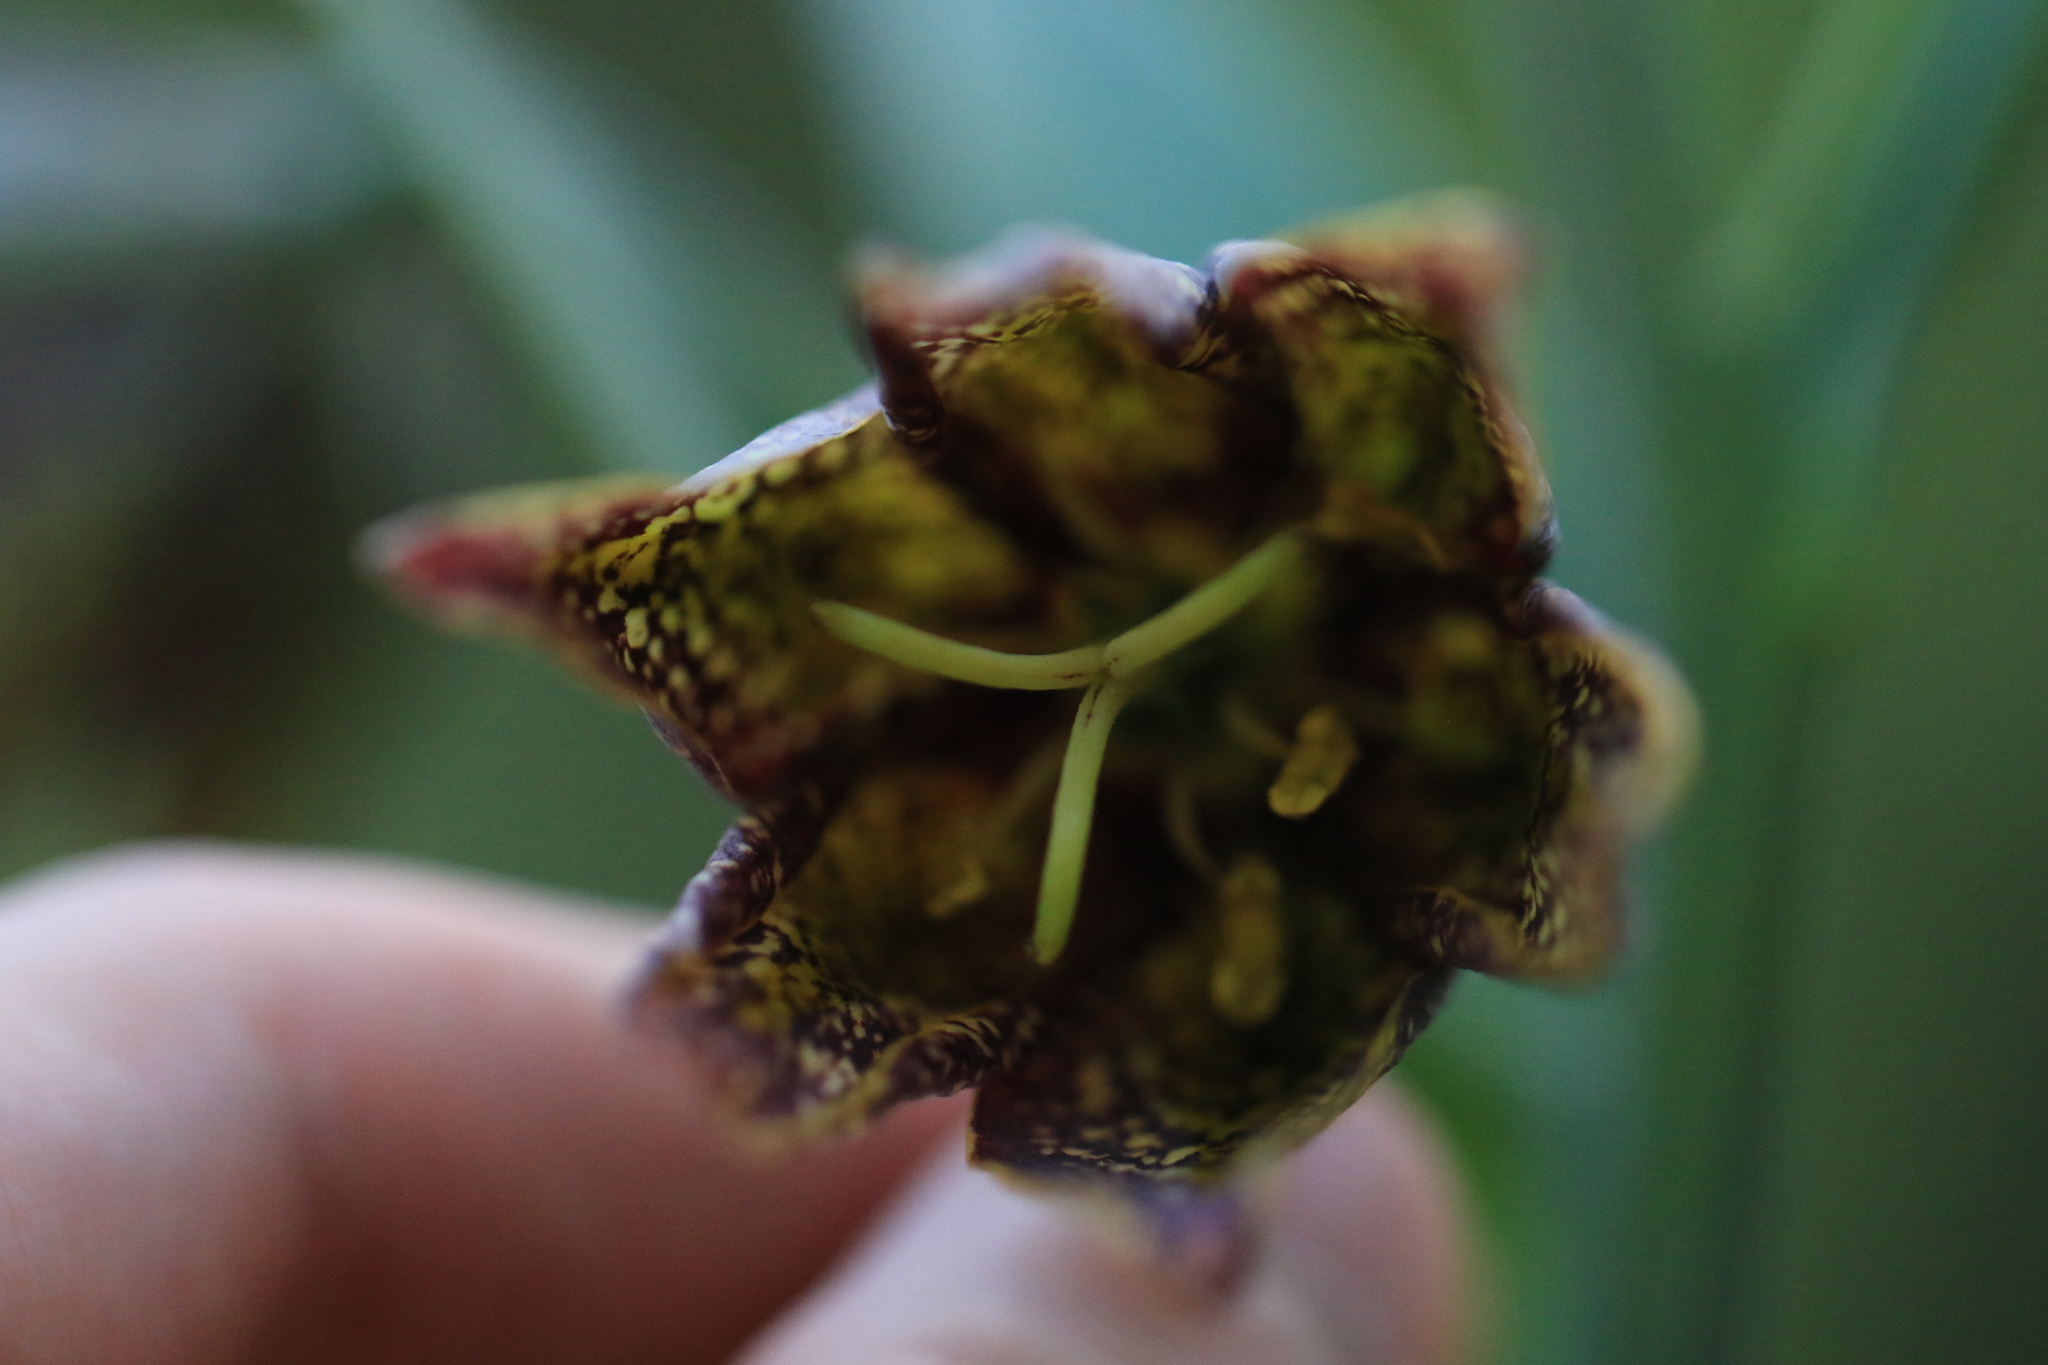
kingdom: Plantae
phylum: Tracheophyta
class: Liliopsida
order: Liliales
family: Liliaceae
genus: Fritillaria
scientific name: Fritillaria affinis
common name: Ojai fritillary
